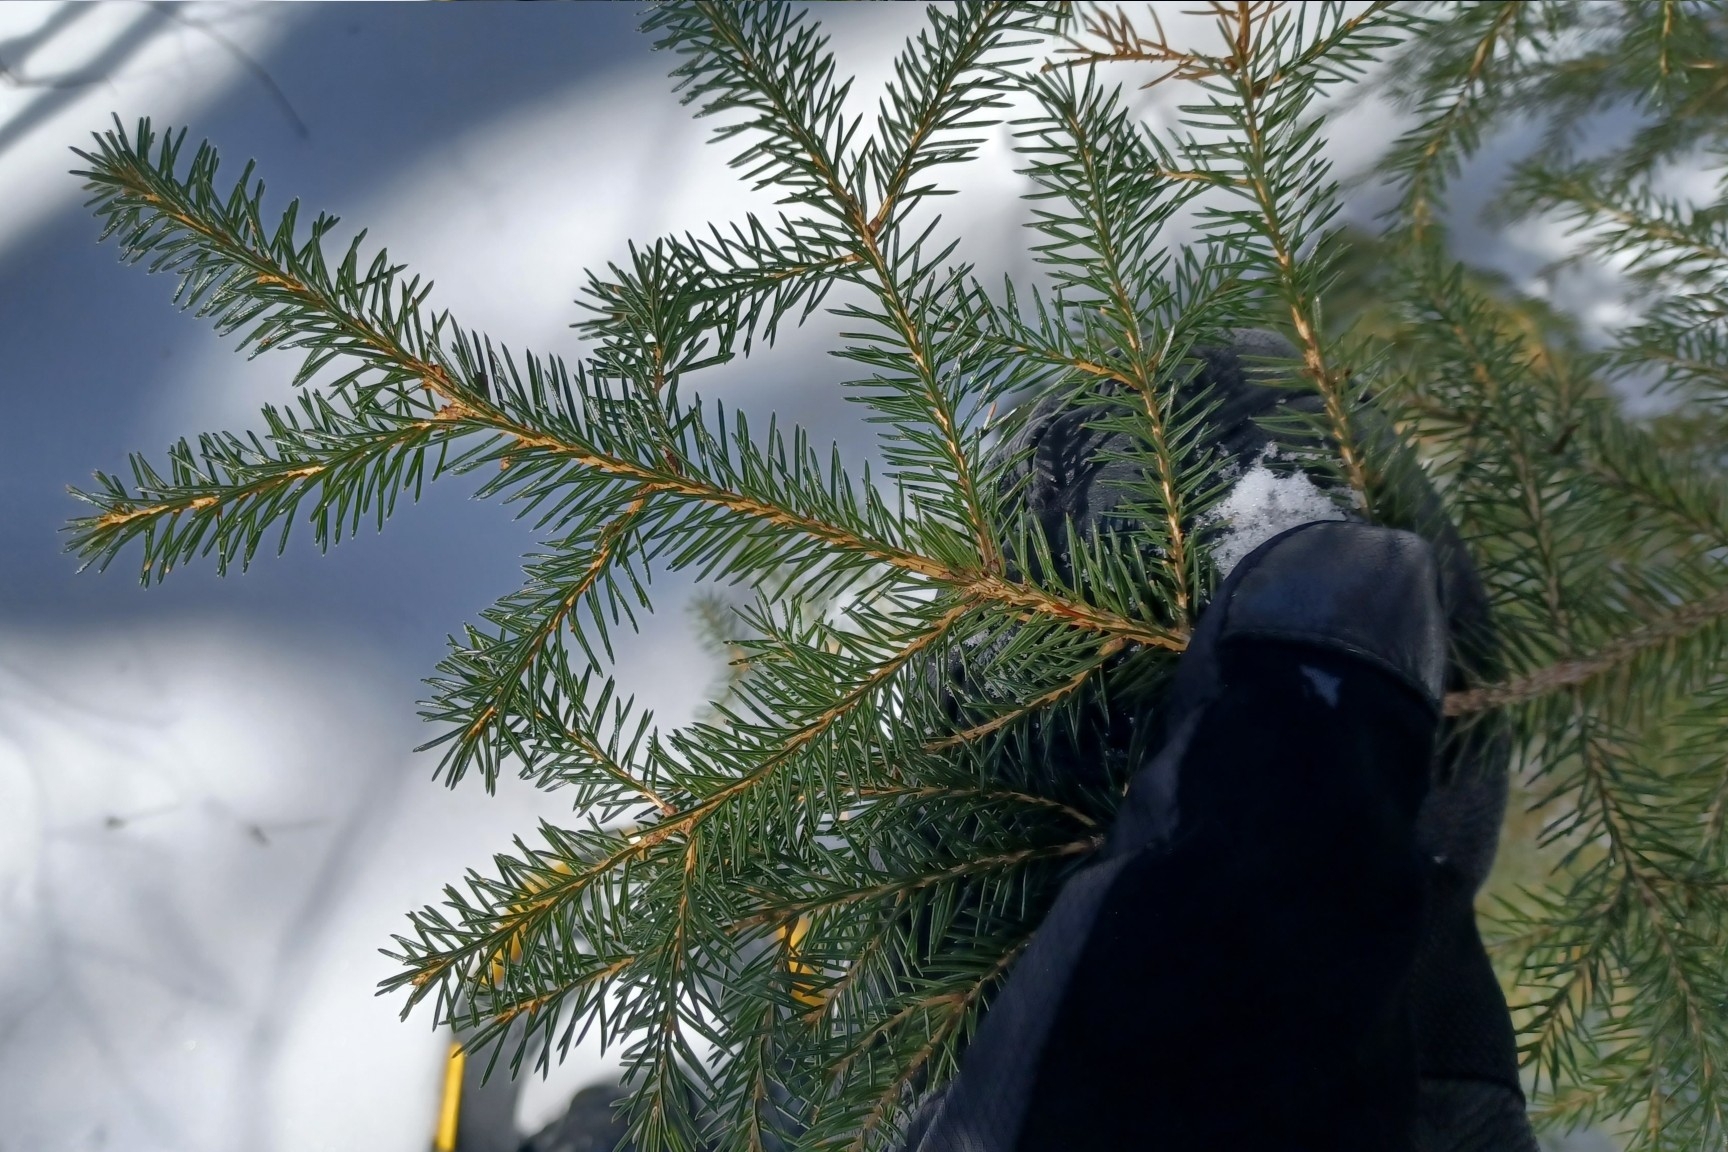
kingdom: Plantae
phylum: Tracheophyta
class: Pinopsida
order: Pinales
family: Pinaceae
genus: Picea
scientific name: Picea rubens
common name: Red spruce
